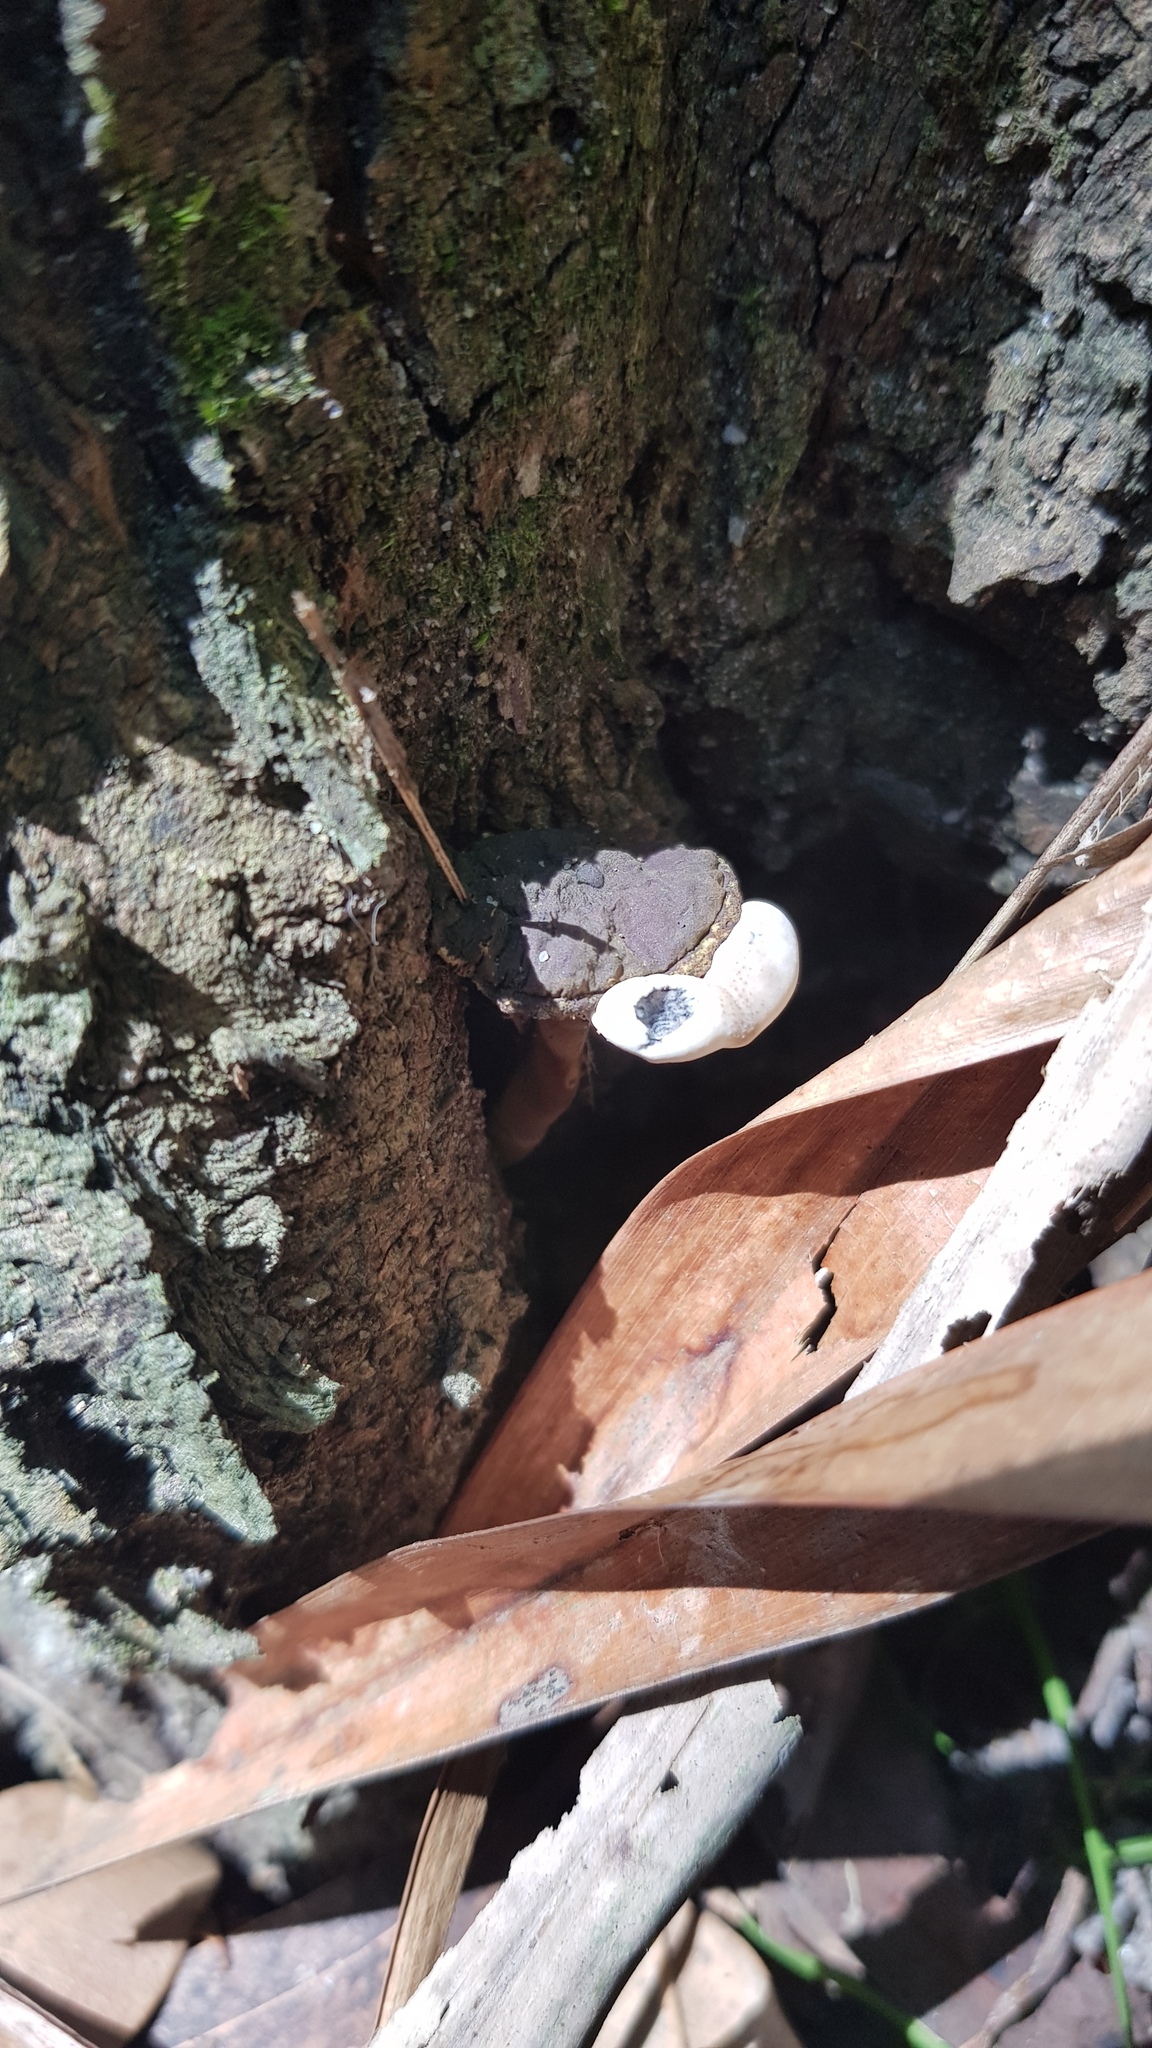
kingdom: Fungi
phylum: Basidiomycota
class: Agaricomycetes
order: Polyporales
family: Ganodermataceae
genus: Sanguinoderma
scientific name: Sanguinoderma rude
